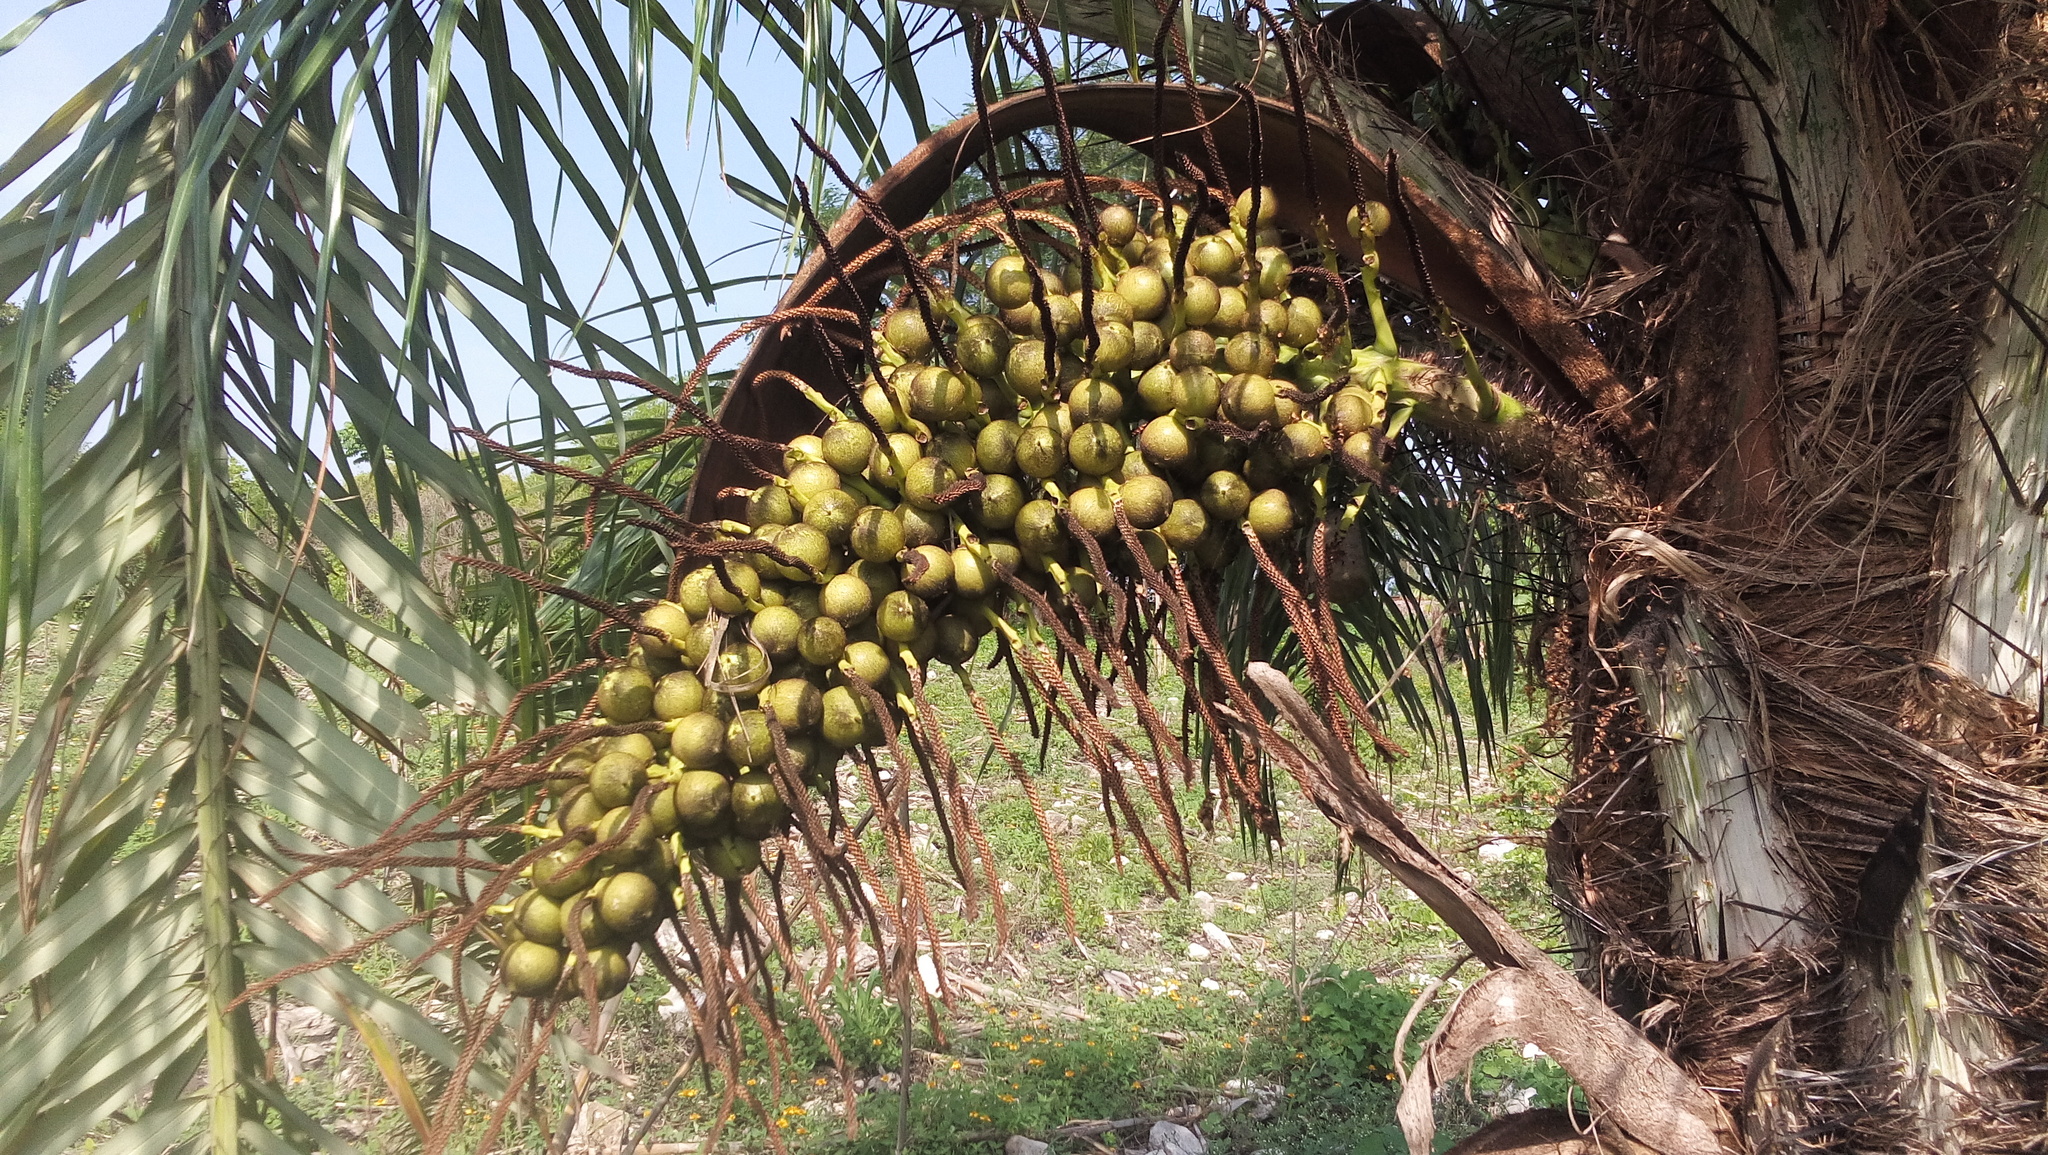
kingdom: Plantae
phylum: Tracheophyta
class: Liliopsida
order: Arecales
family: Arecaceae
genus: Acrocomia
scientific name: Acrocomia aculeata
